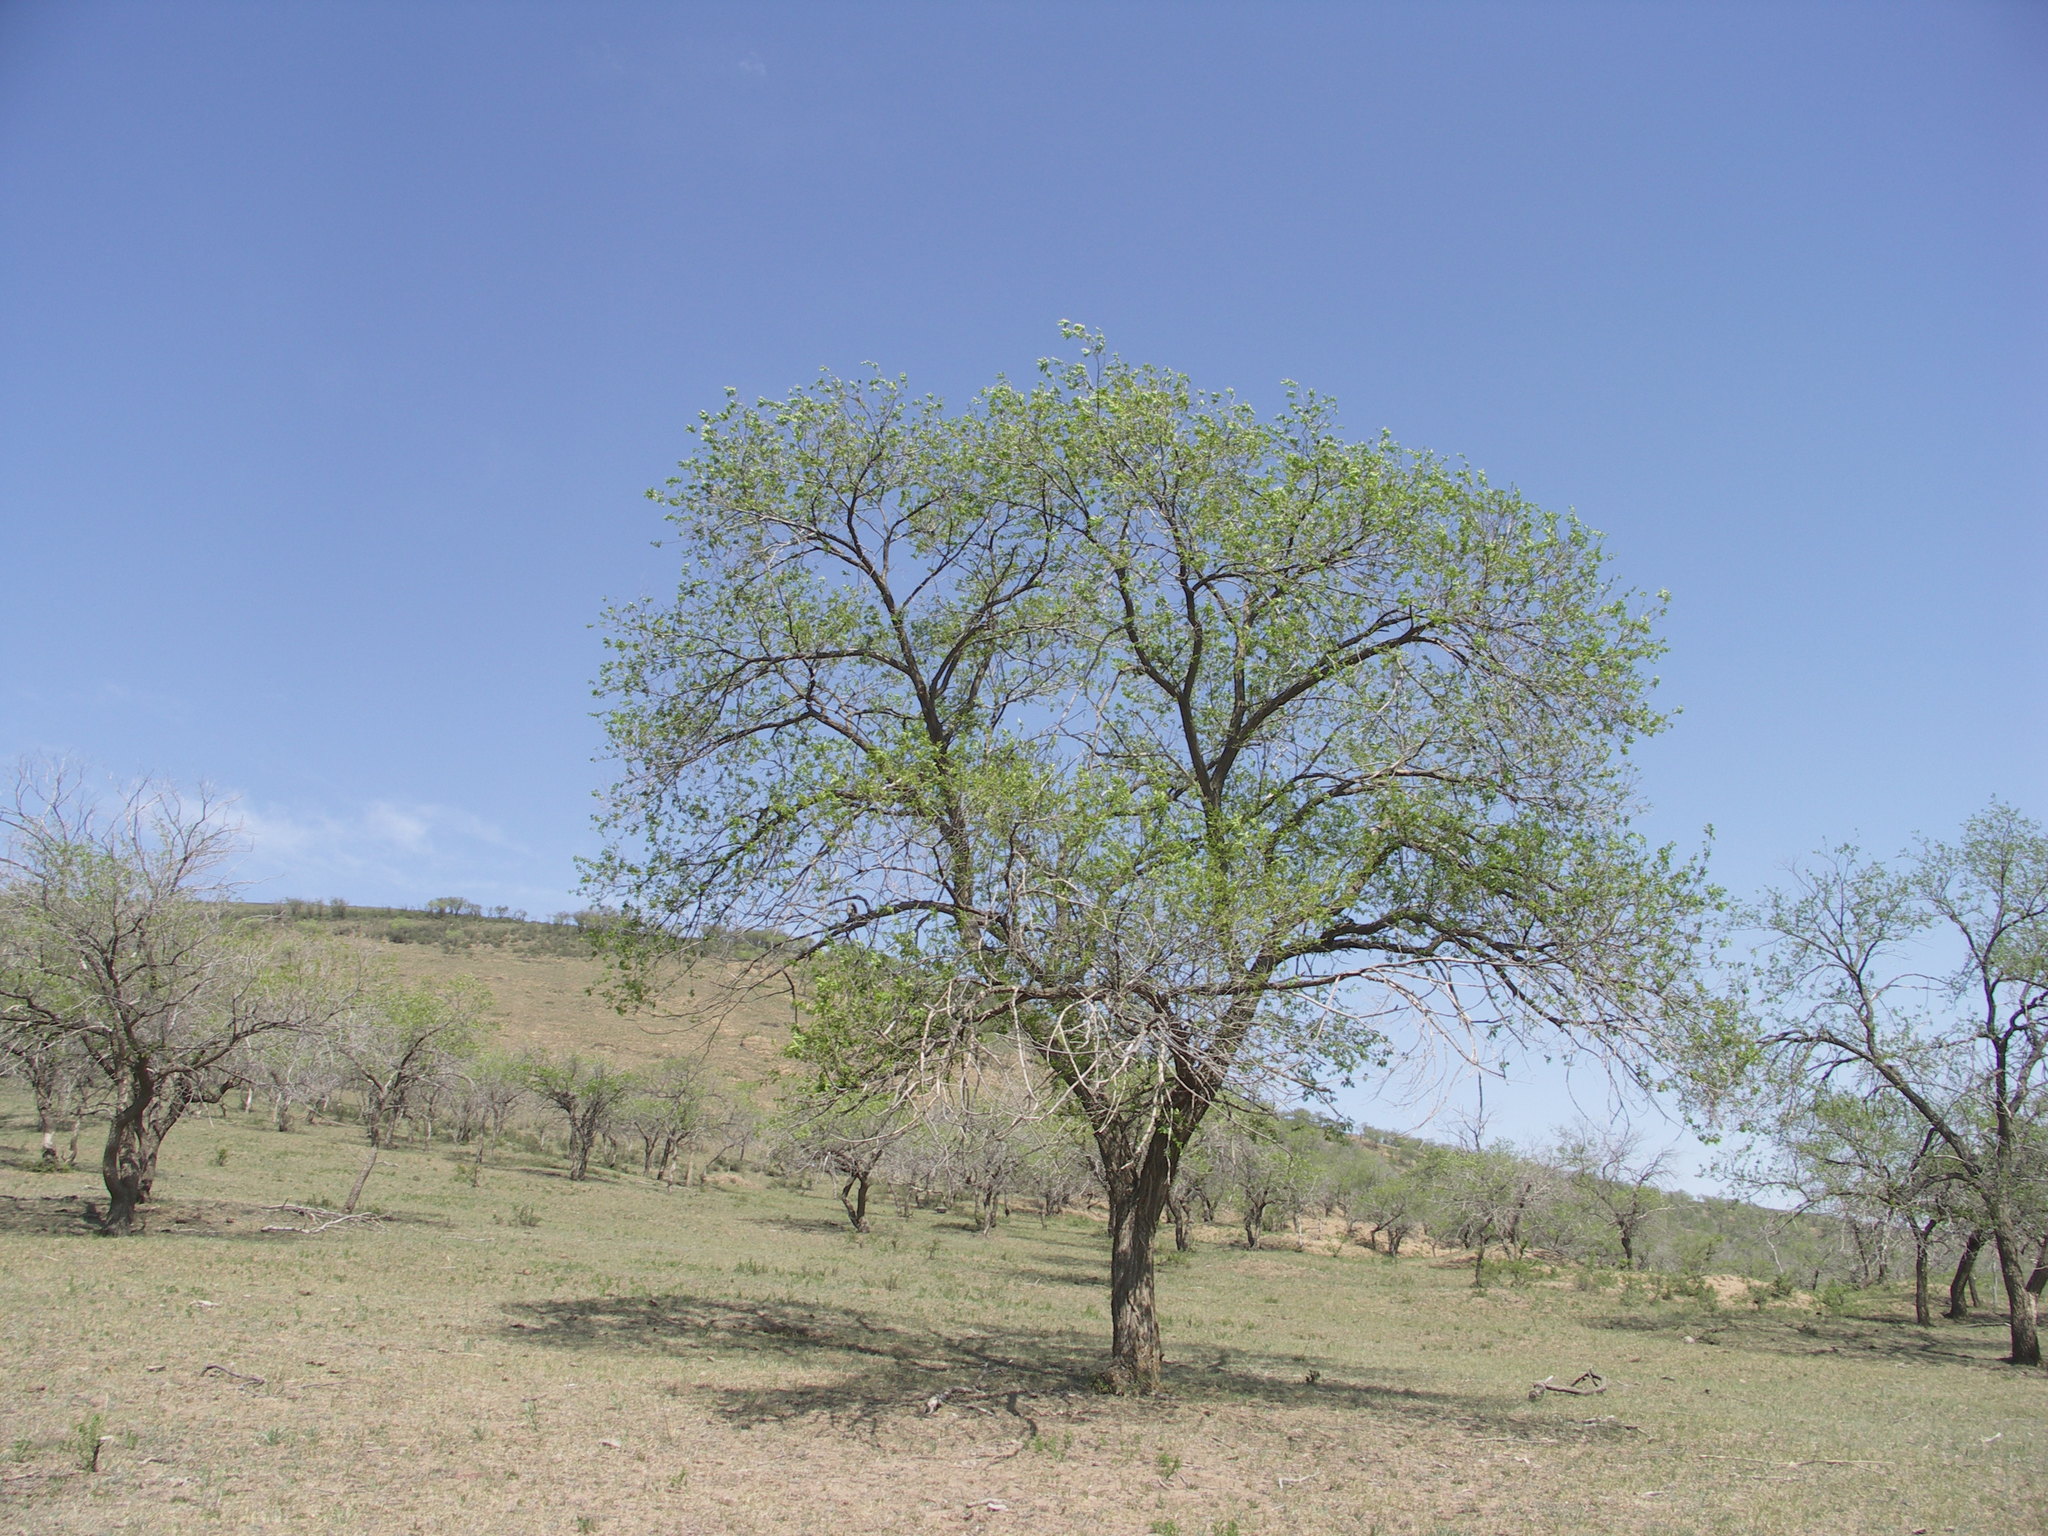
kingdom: Plantae
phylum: Tracheophyta
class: Magnoliopsida
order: Rosales
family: Ulmaceae
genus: Ulmus
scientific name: Ulmus pumila
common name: Siberian elm
